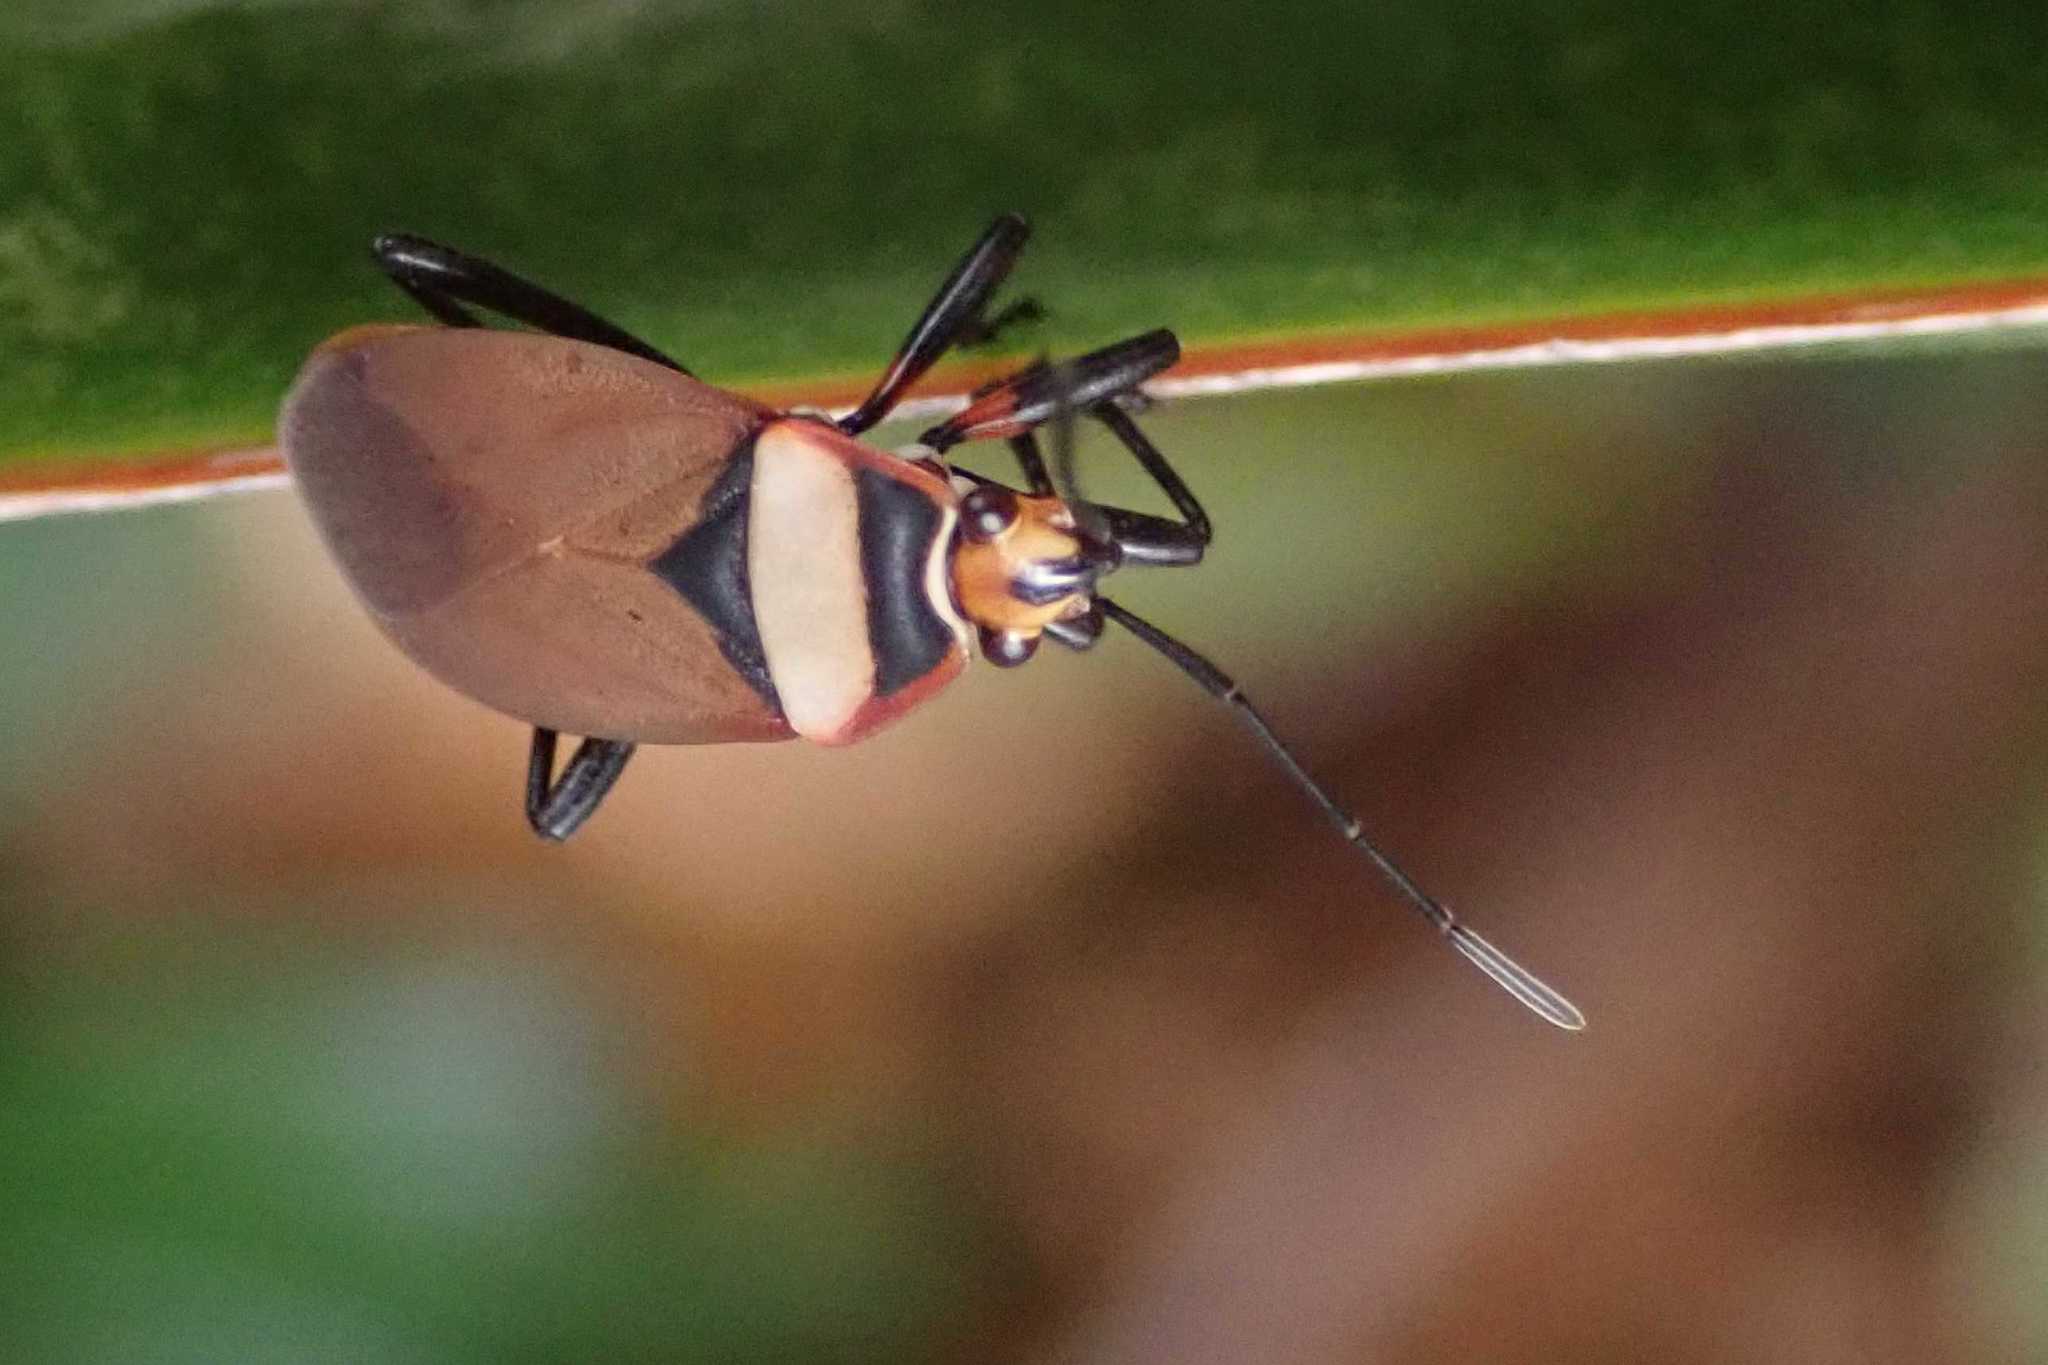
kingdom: Animalia
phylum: Arthropoda
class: Insecta
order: Hemiptera
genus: Cenaeus
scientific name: Cenaeus
